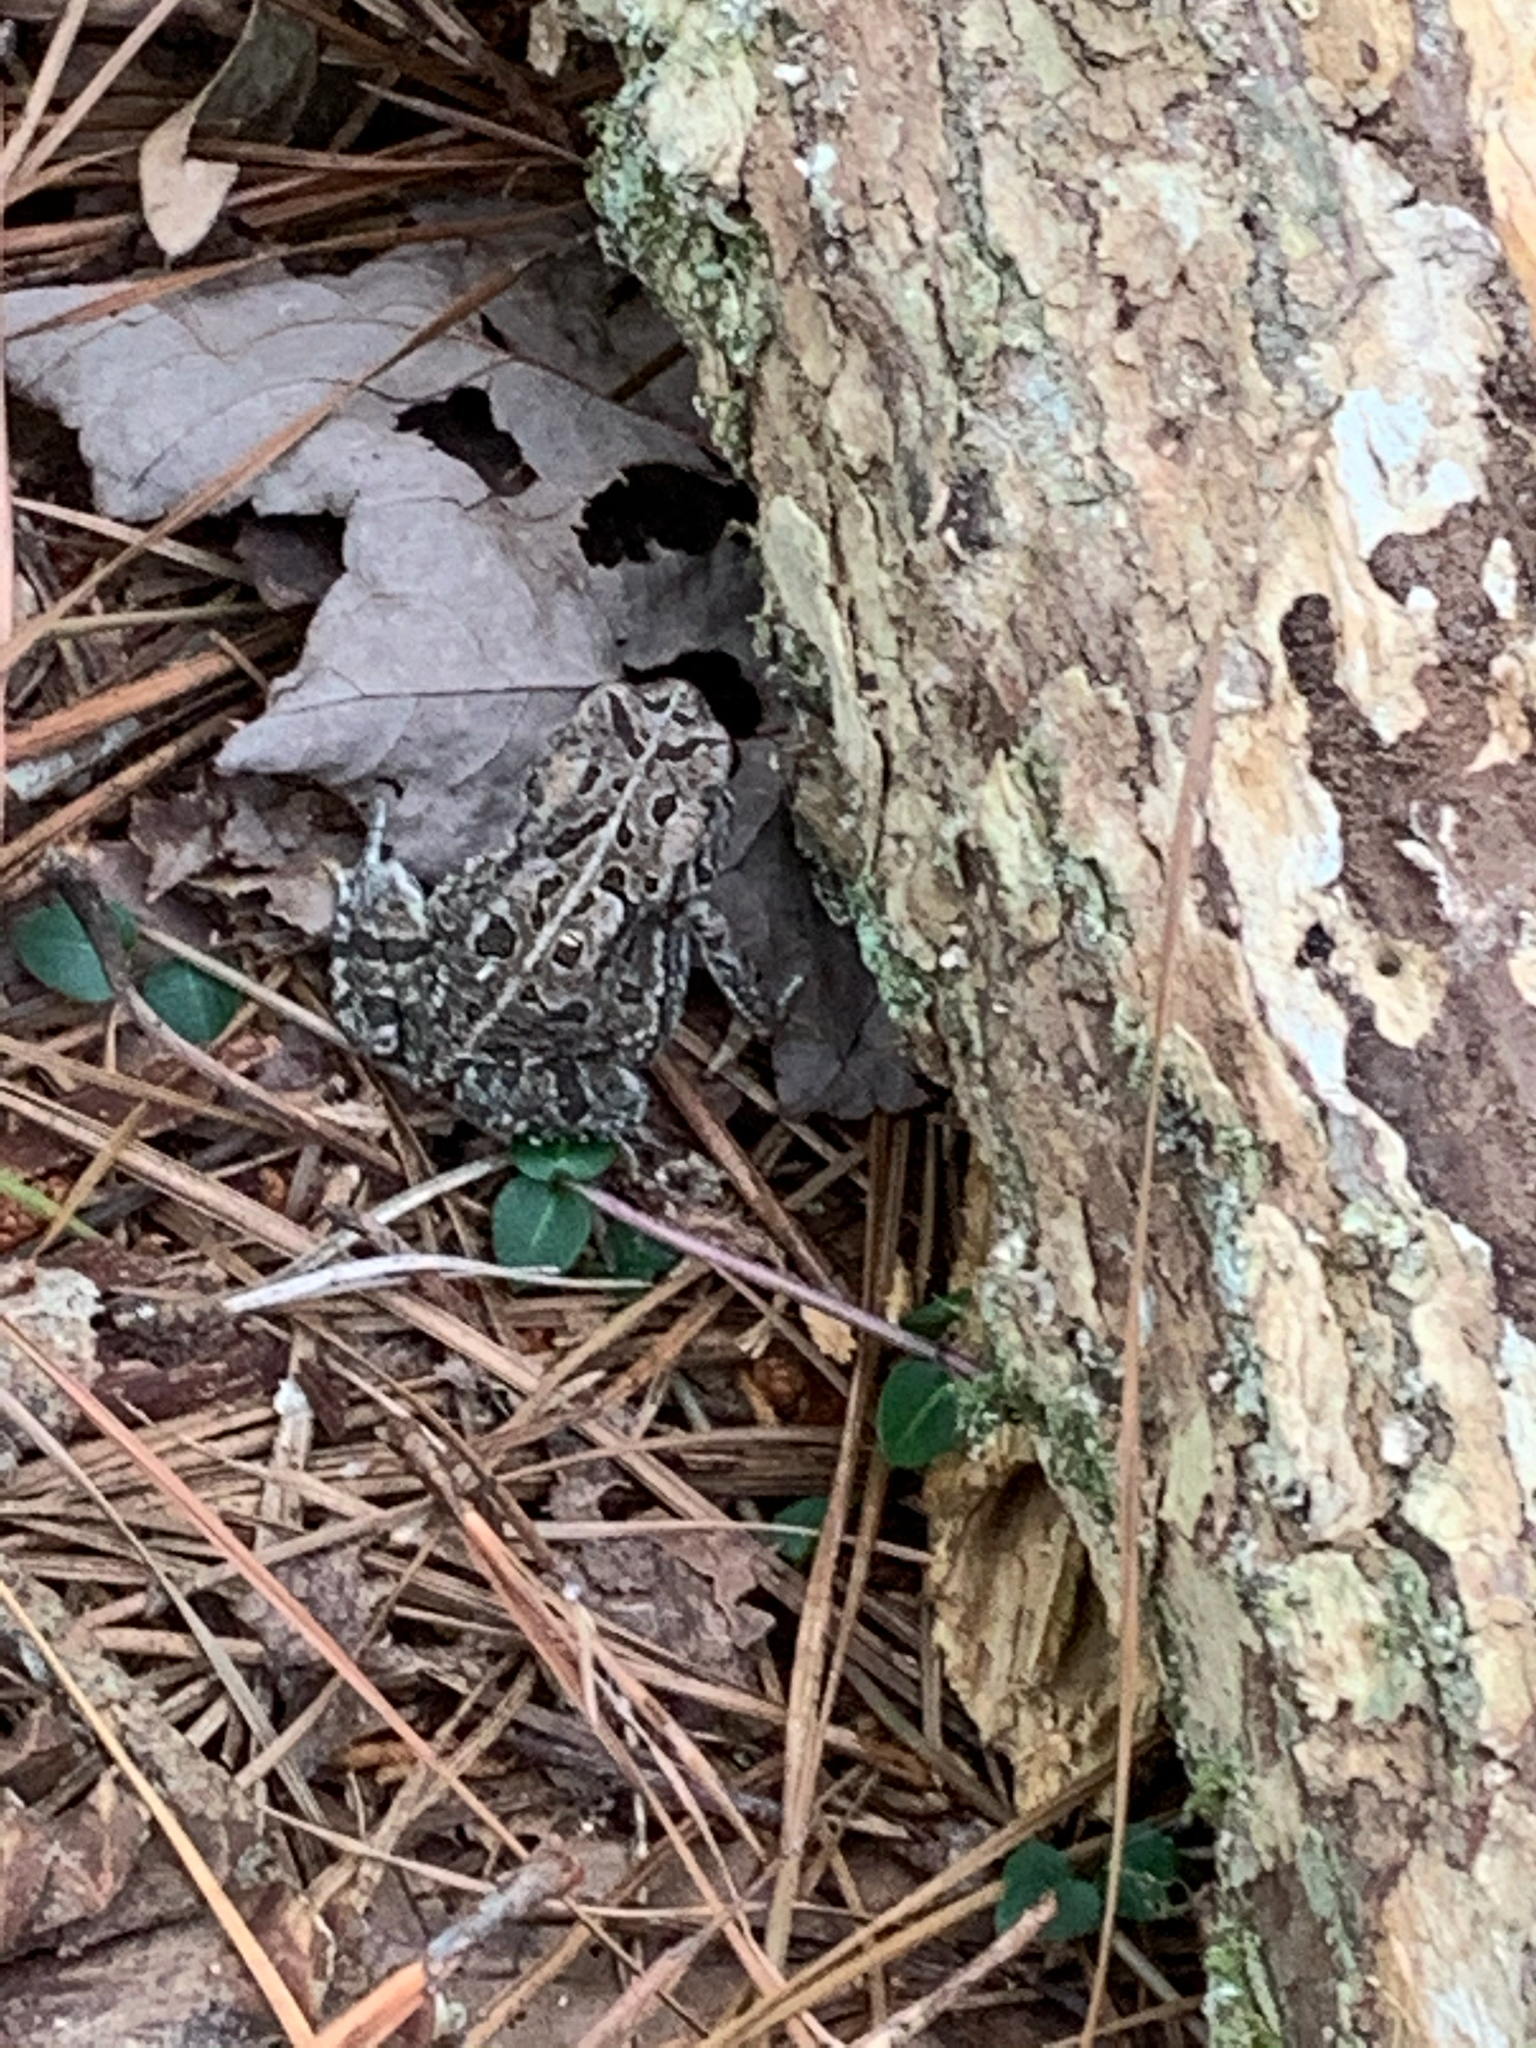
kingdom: Animalia
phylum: Chordata
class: Amphibia
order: Anura
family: Bufonidae
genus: Anaxyrus
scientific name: Anaxyrus fowleri
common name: Fowler's toad
